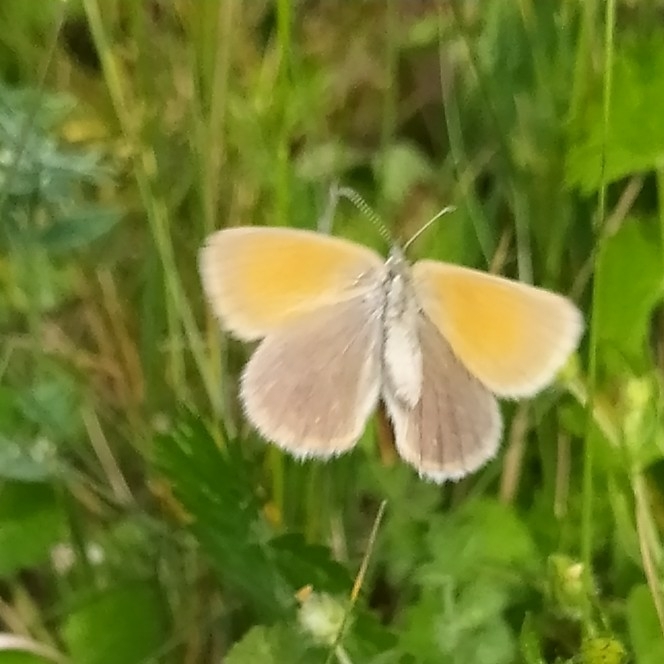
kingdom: Animalia
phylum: Arthropoda
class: Insecta
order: Lepidoptera
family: Nymphalidae
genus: Coenonympha
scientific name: Coenonympha iphis
